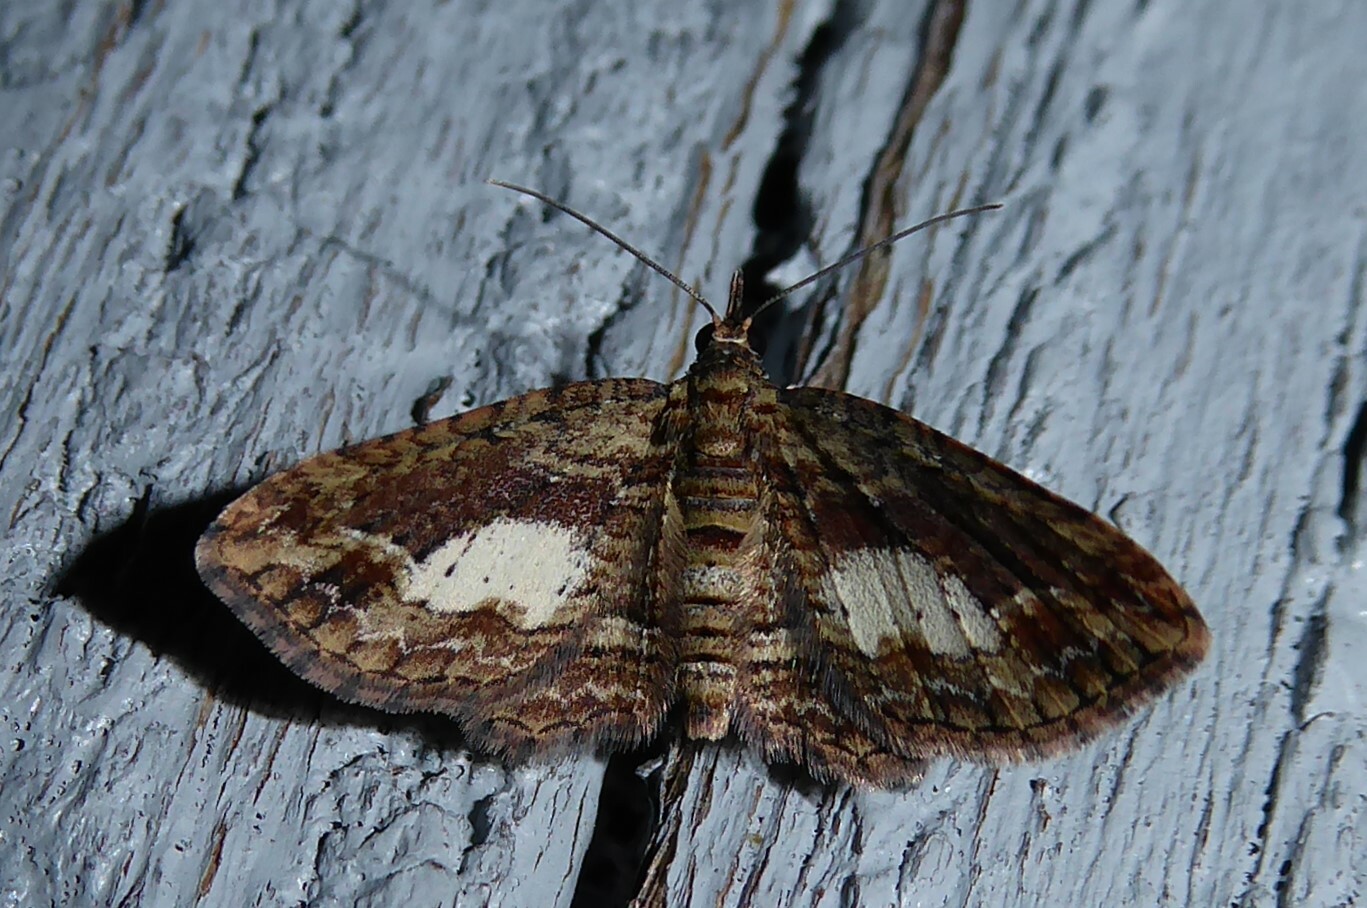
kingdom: Animalia
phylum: Arthropoda
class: Insecta
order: Lepidoptera
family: Geometridae
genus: Chloroclystis
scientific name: Chloroclystis filata
